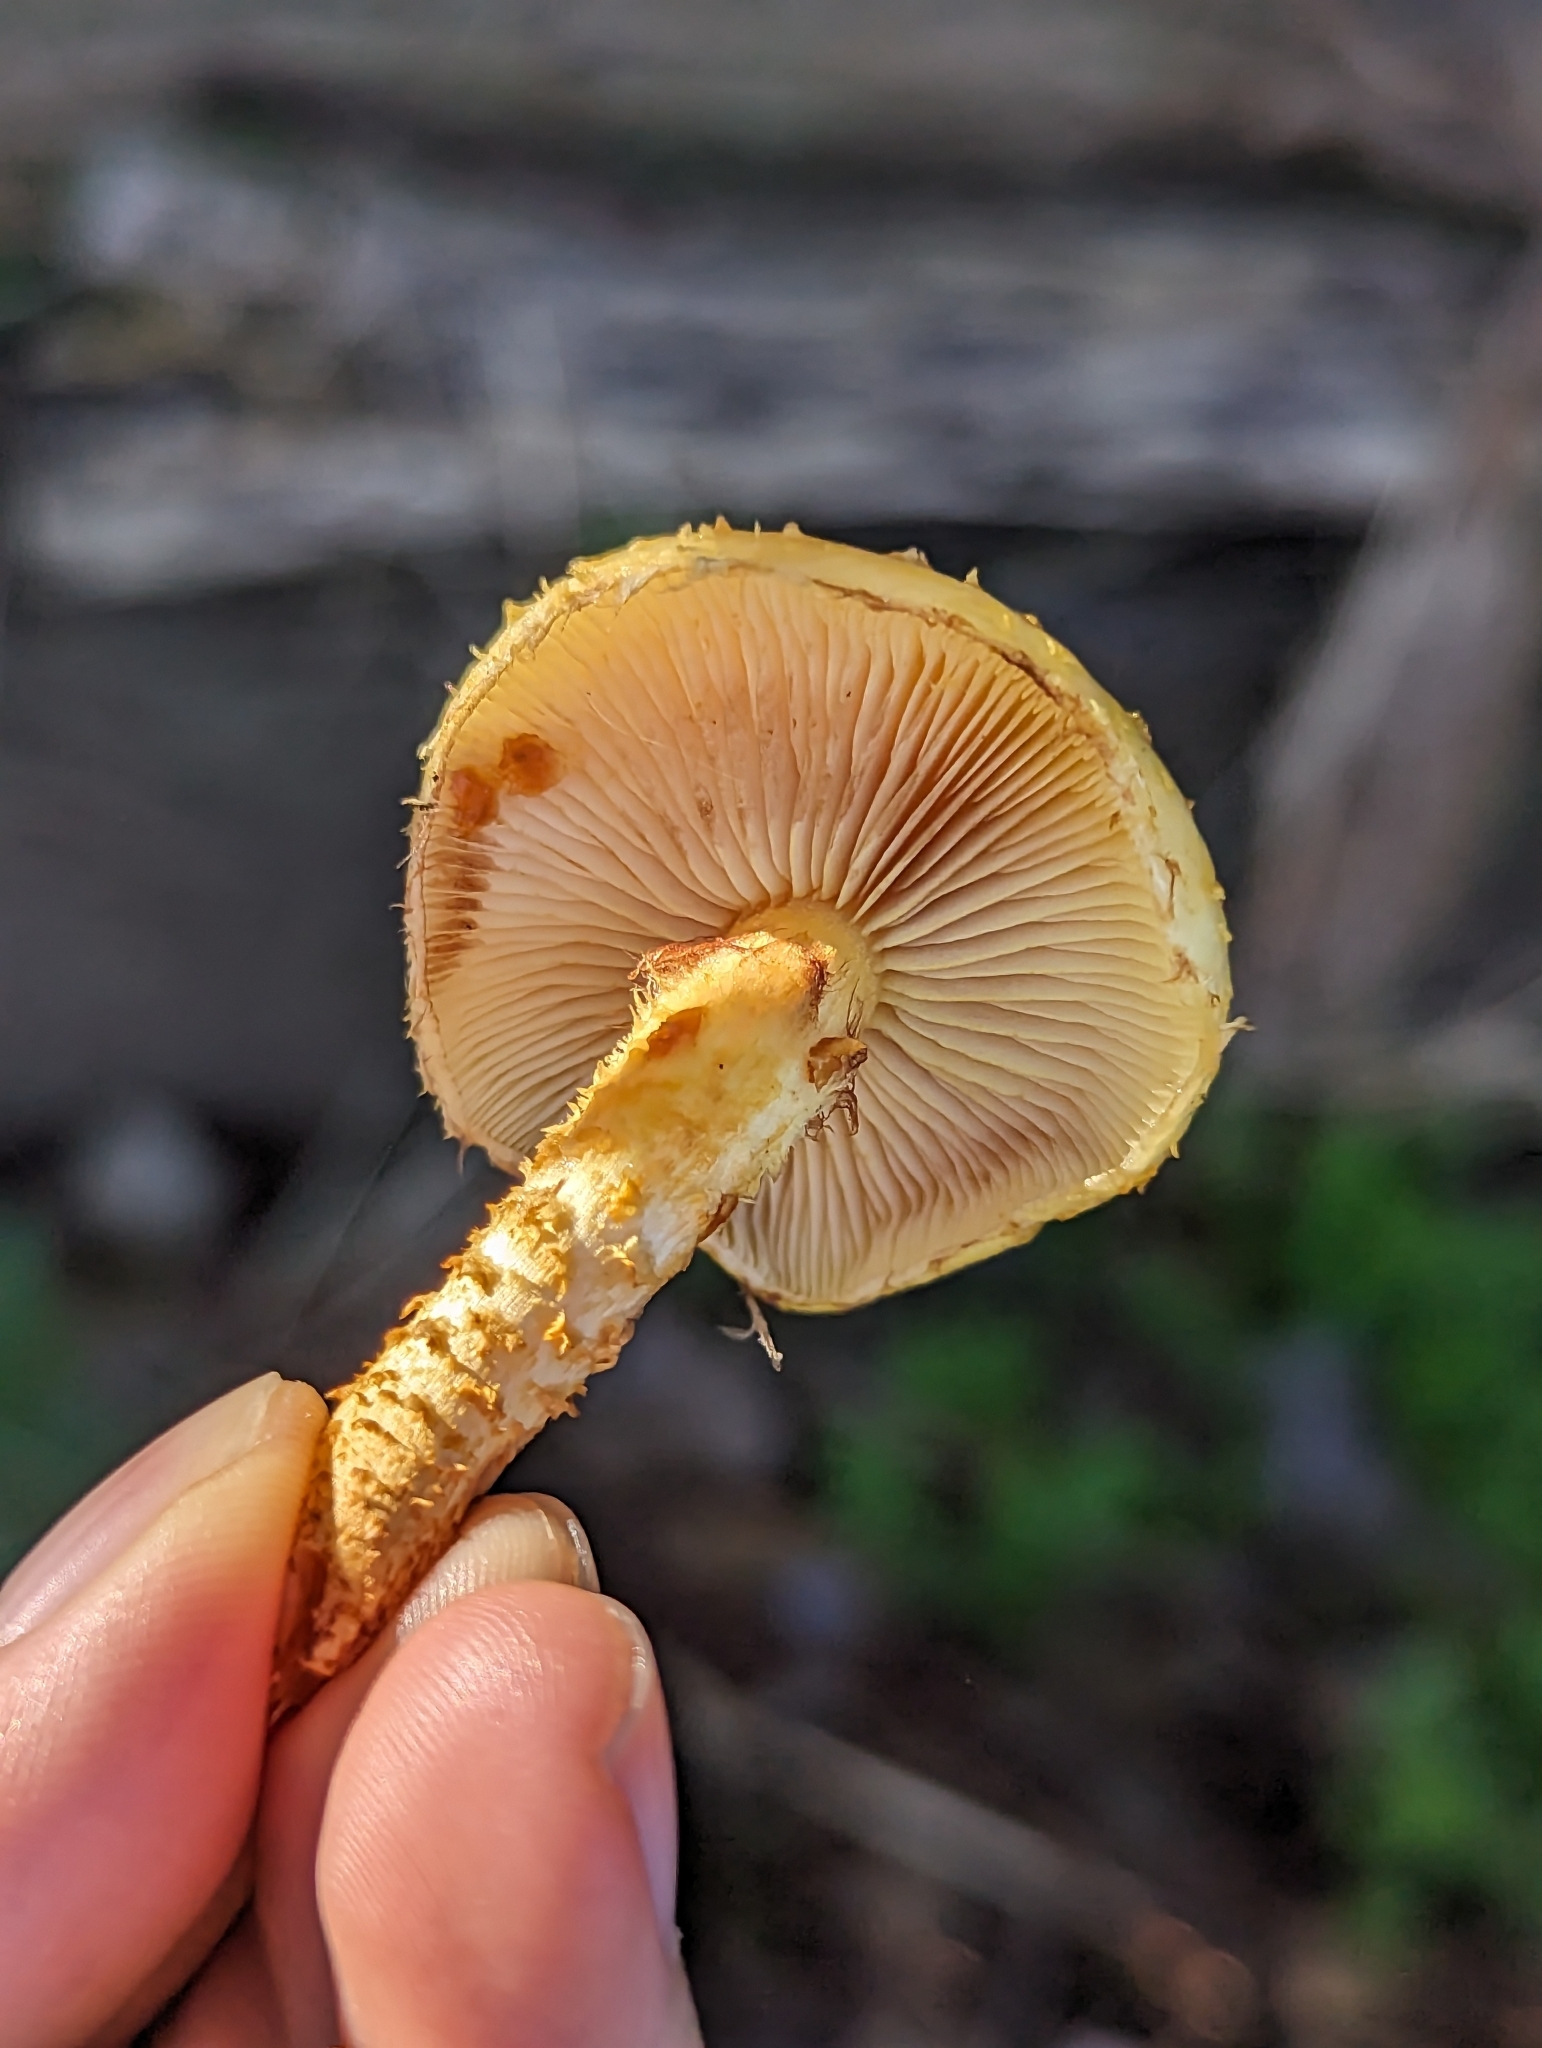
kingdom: Fungi
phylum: Basidiomycota
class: Agaricomycetes
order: Agaricales
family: Strophariaceae
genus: Pholiota
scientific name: Pholiota aurivella
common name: Golden scalycap
